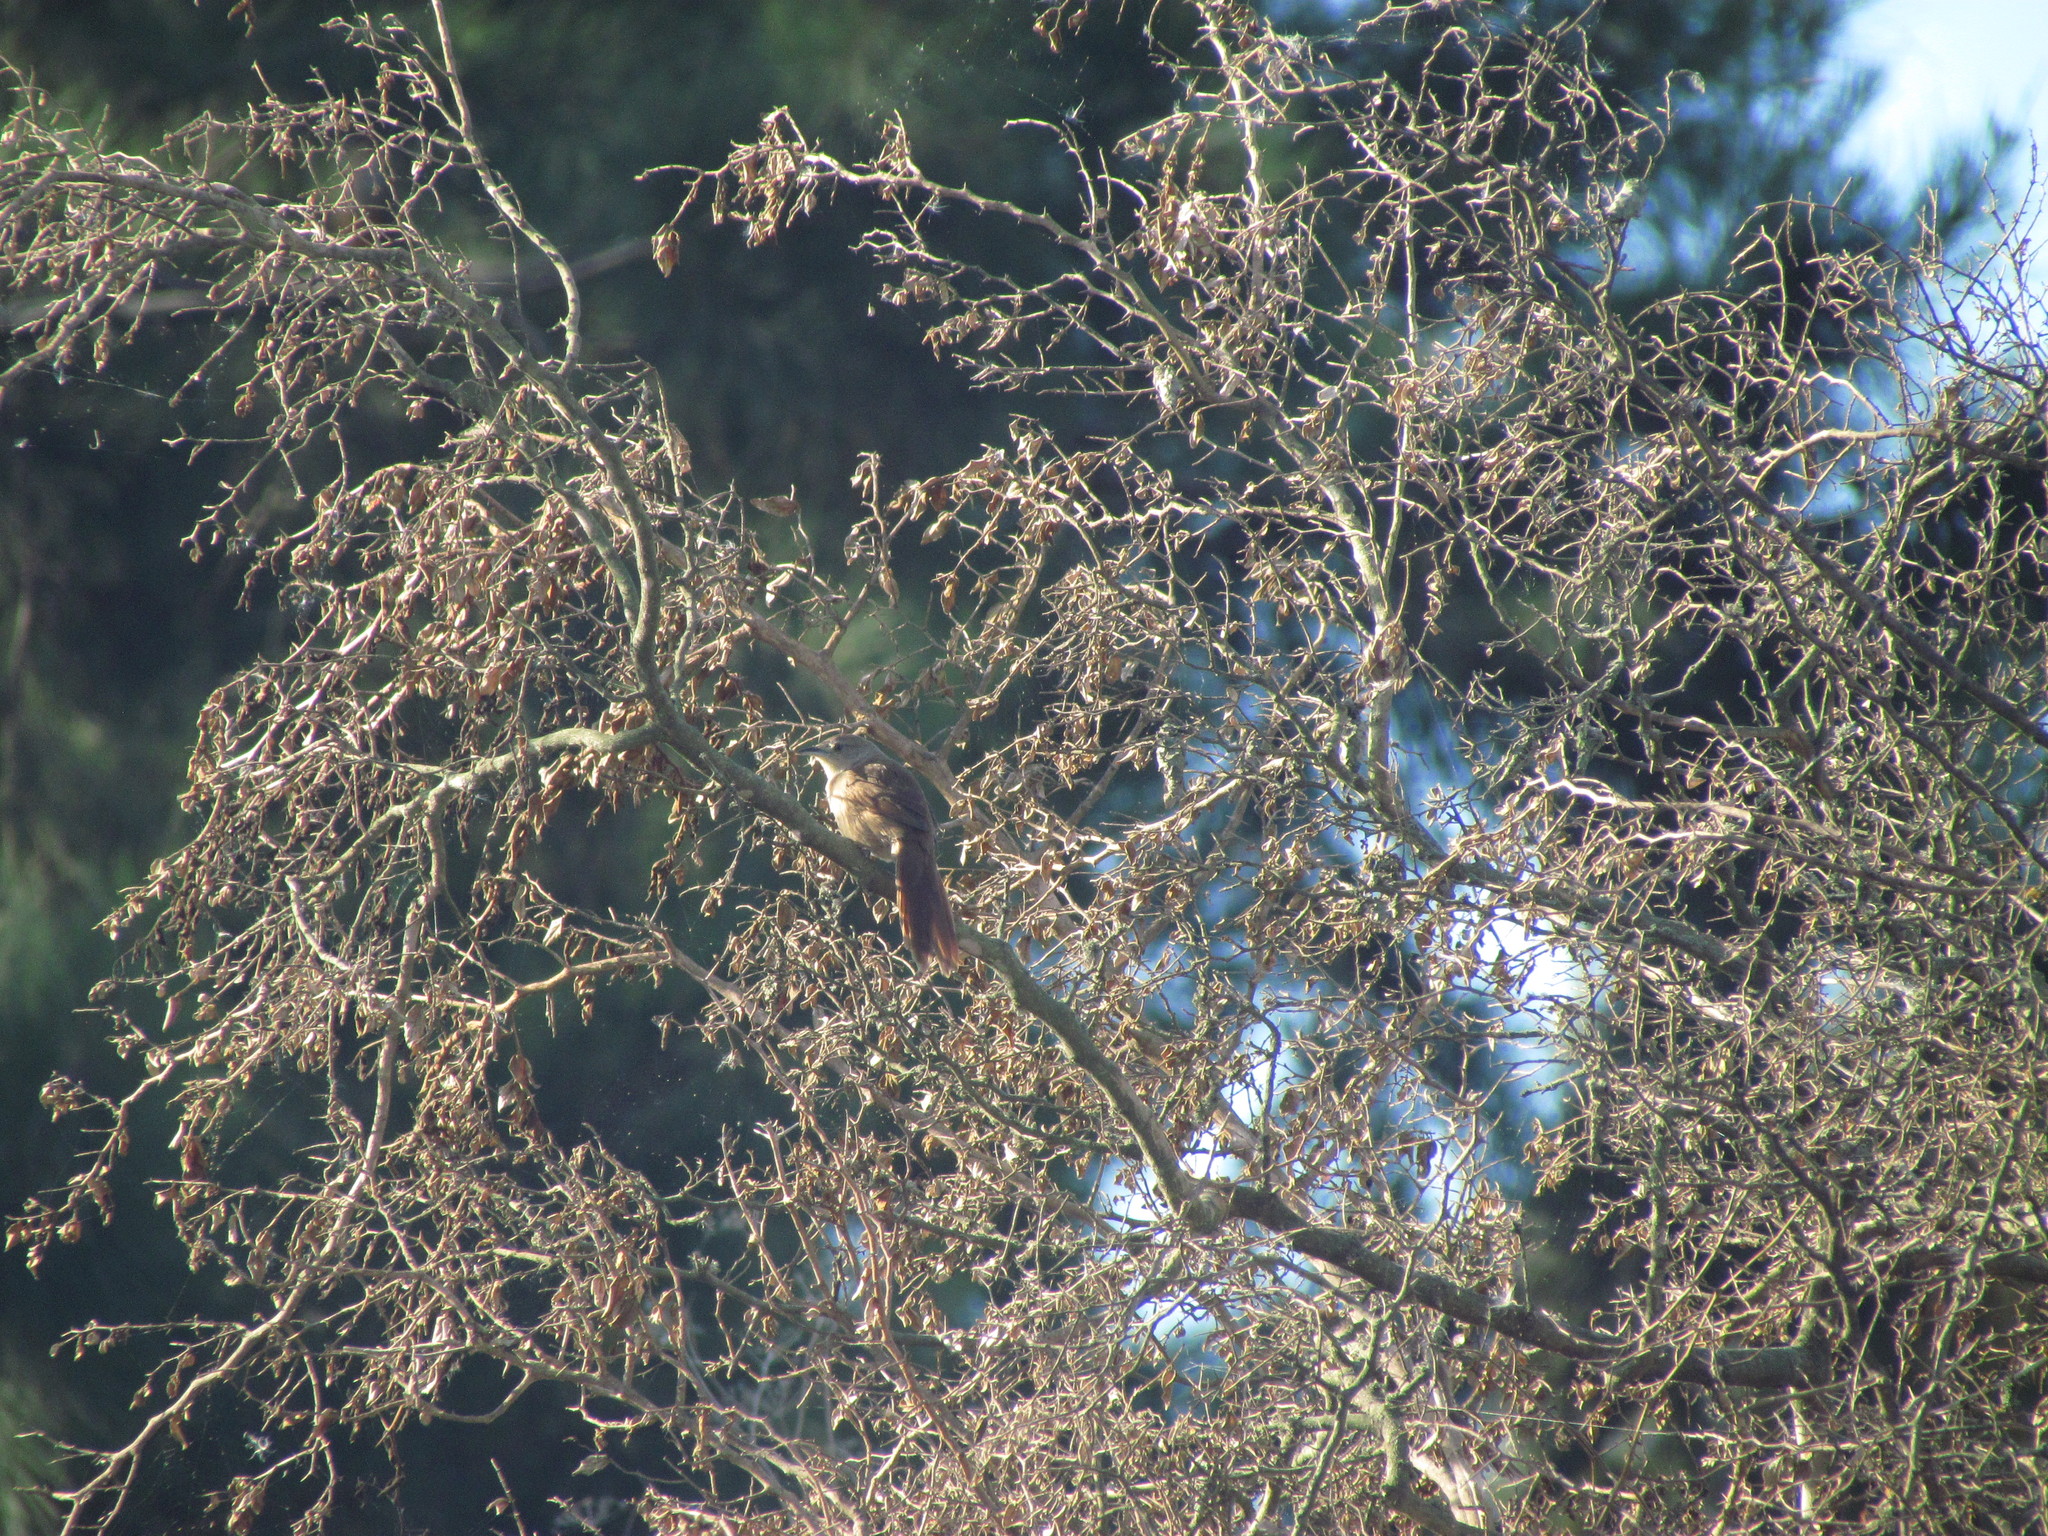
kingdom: Animalia
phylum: Chordata
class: Aves
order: Passeriformes
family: Furnariidae
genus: Phacellodomus
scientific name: Phacellodomus striaticollis
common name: Freckle-breasted thornbird
